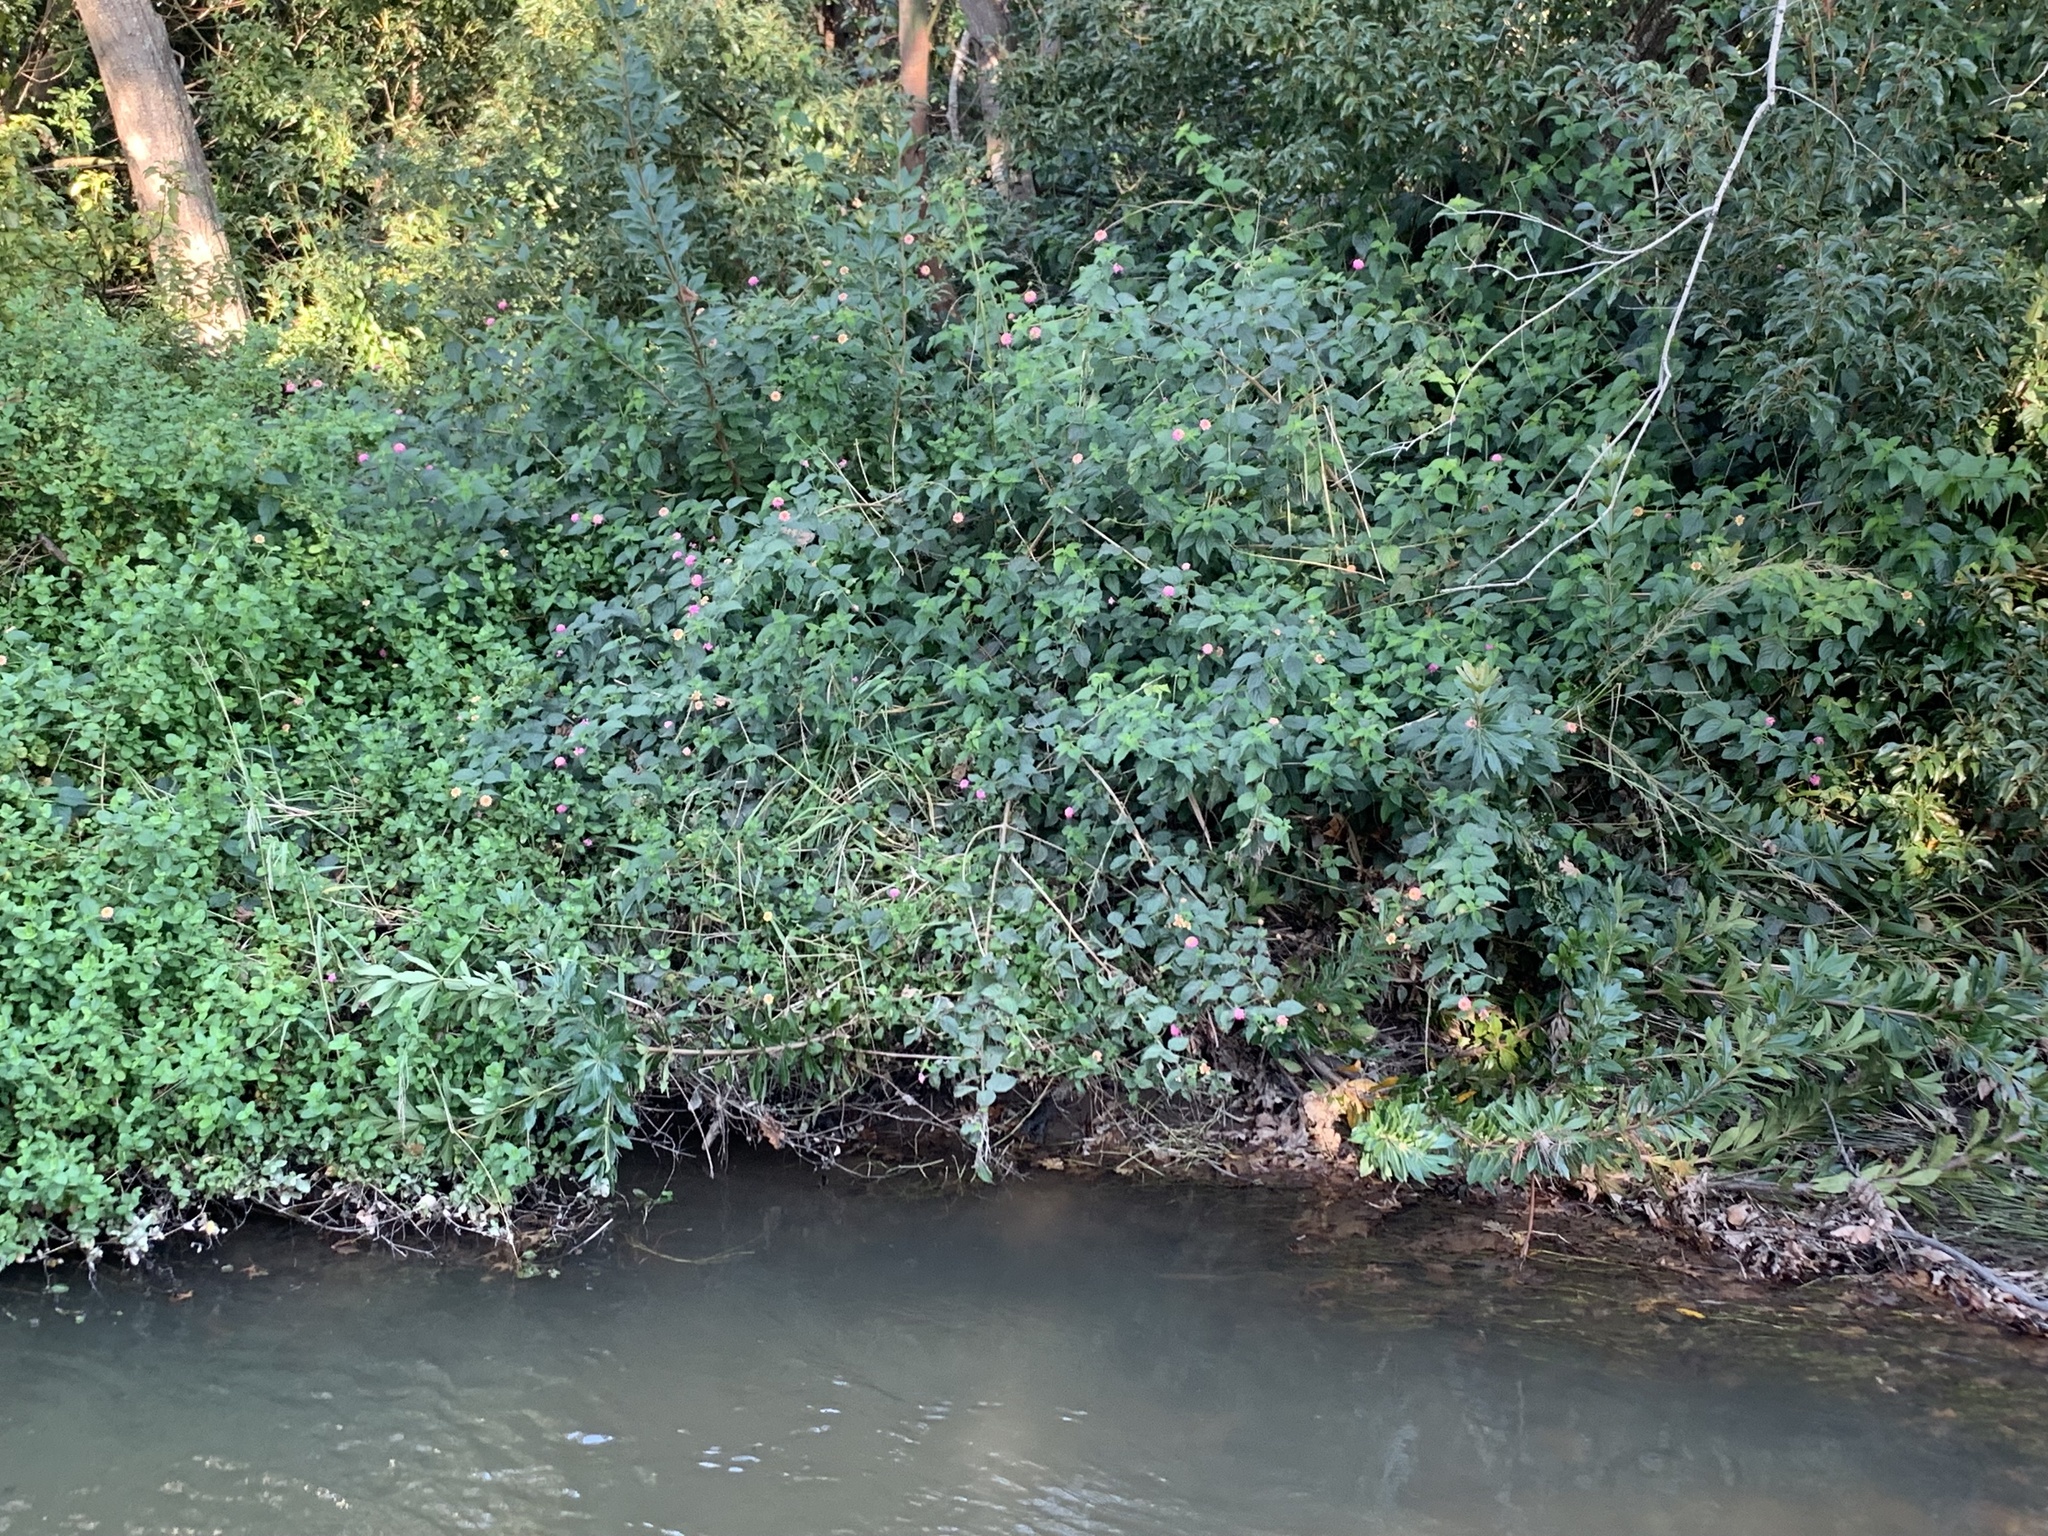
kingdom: Plantae
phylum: Tracheophyta
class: Magnoliopsida
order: Lamiales
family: Verbenaceae
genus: Lantana
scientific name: Lantana camara
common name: Lantana
